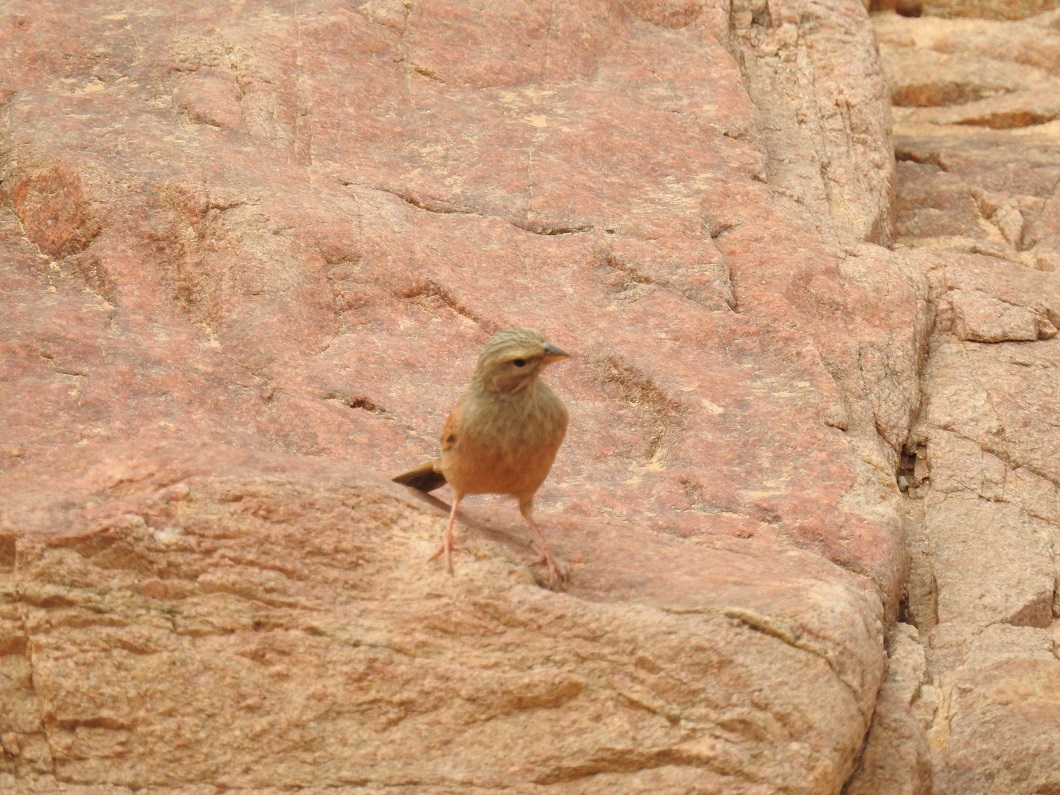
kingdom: Animalia
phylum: Chordata
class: Aves
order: Passeriformes
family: Emberizidae
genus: Emberiza
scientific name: Emberiza sahari
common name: House bunting
